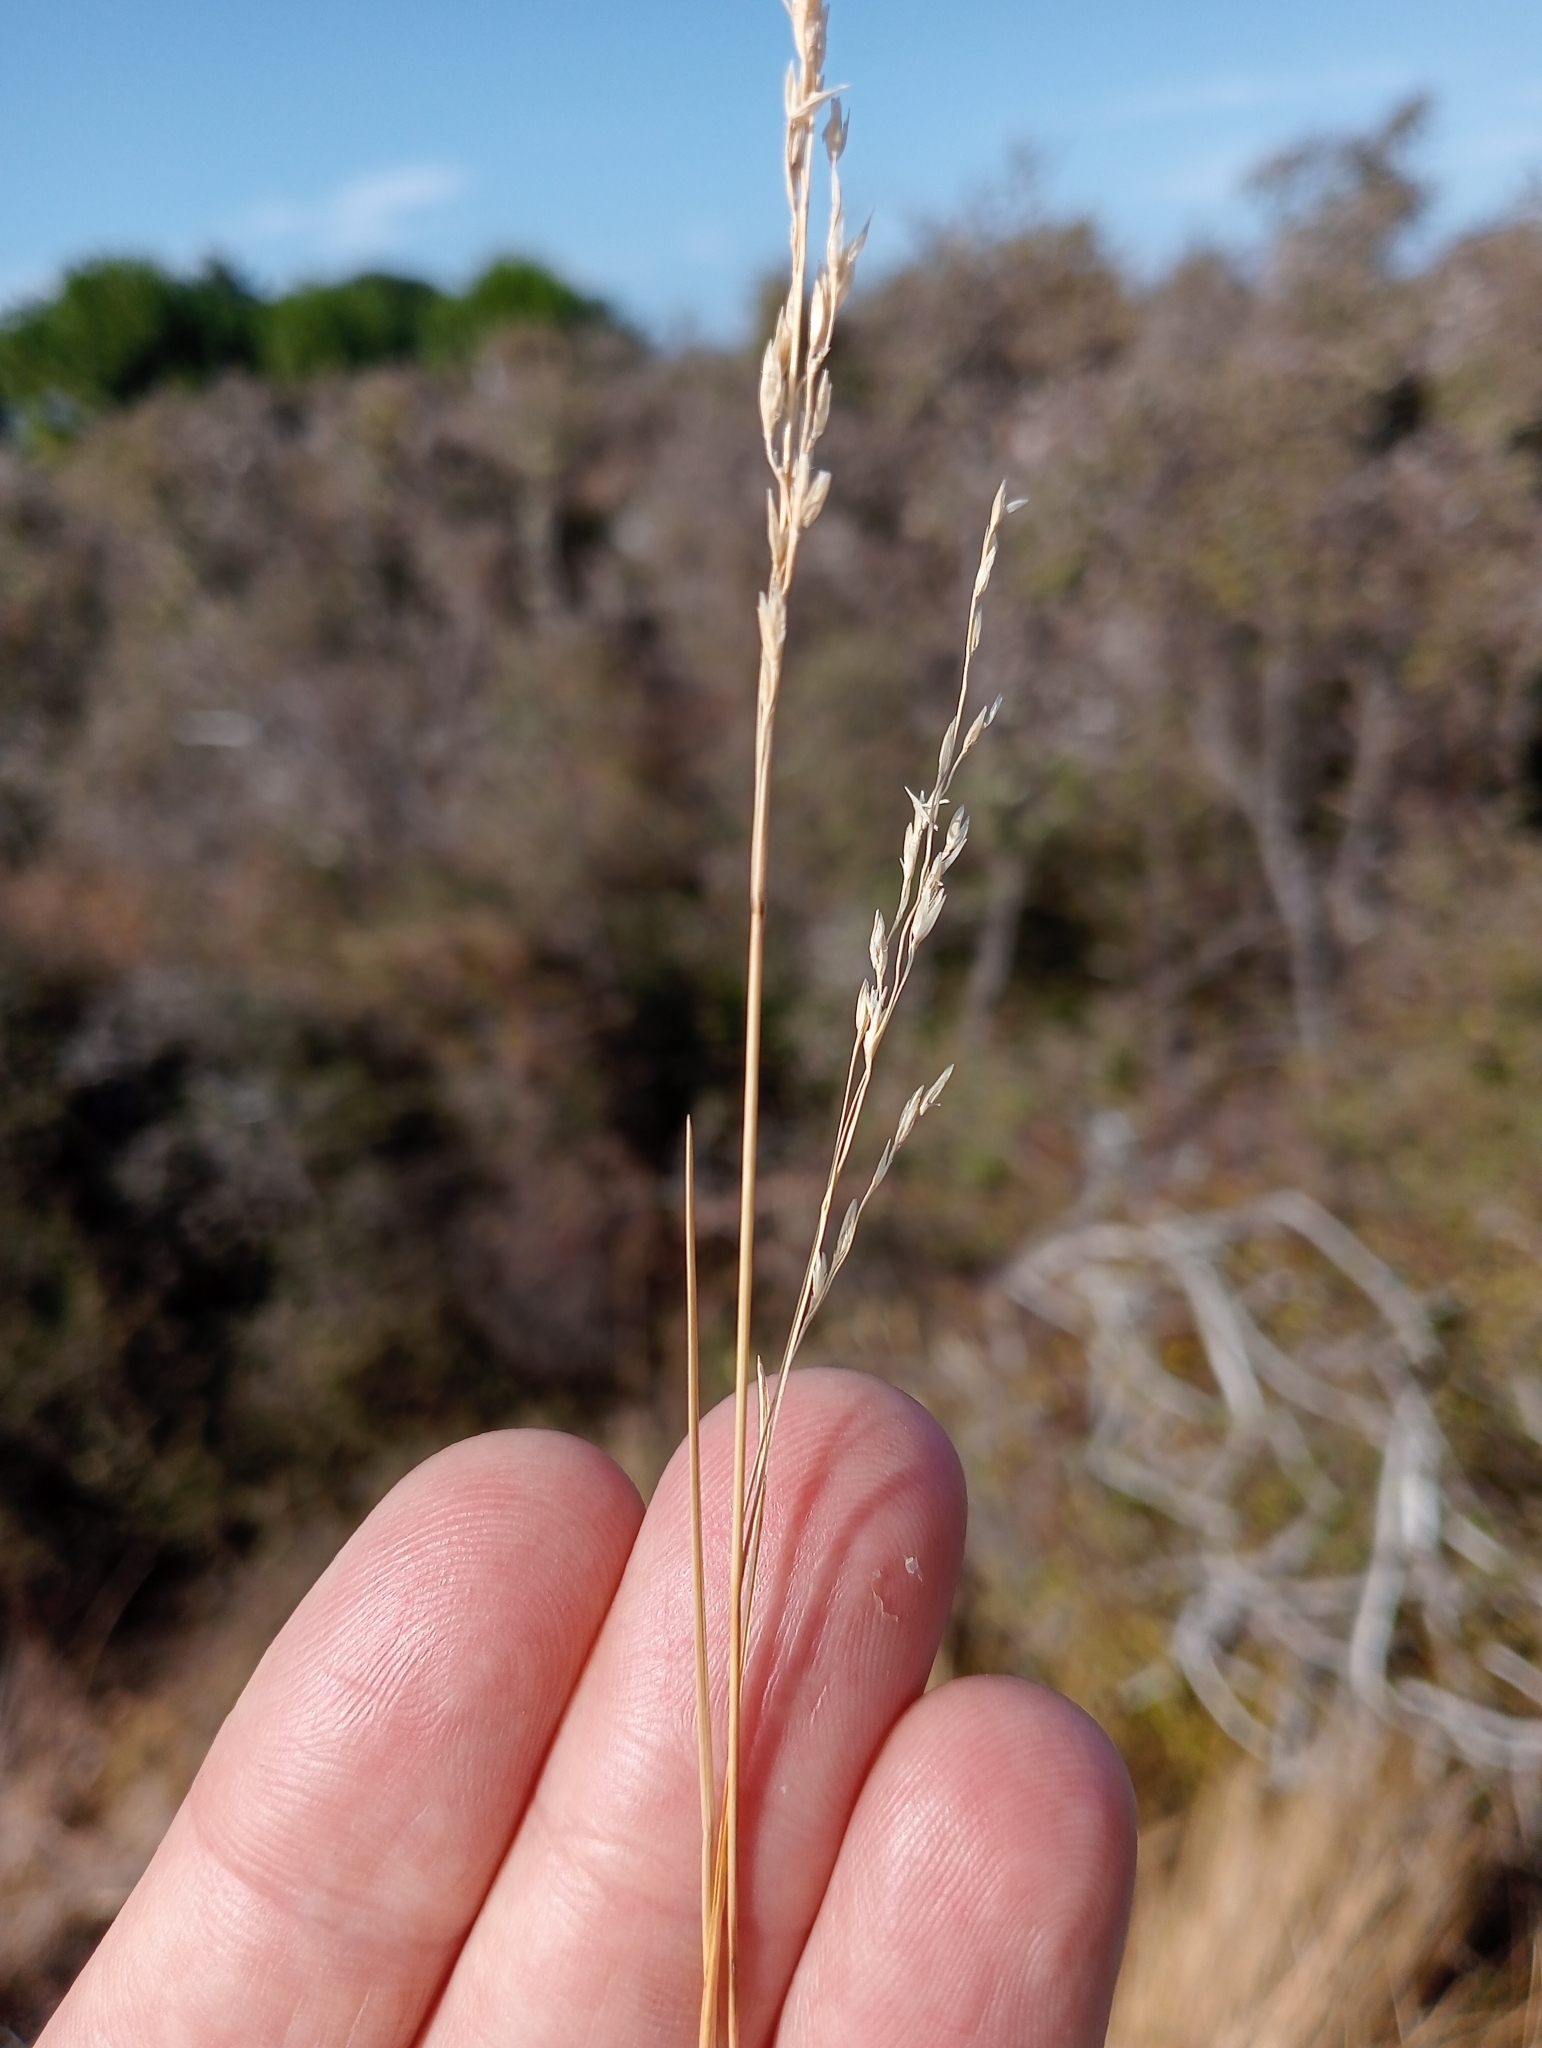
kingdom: Plantae
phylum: Tracheophyta
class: Liliopsida
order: Poales
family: Poaceae
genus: Poa
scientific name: Poa cita
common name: Silver tussock
